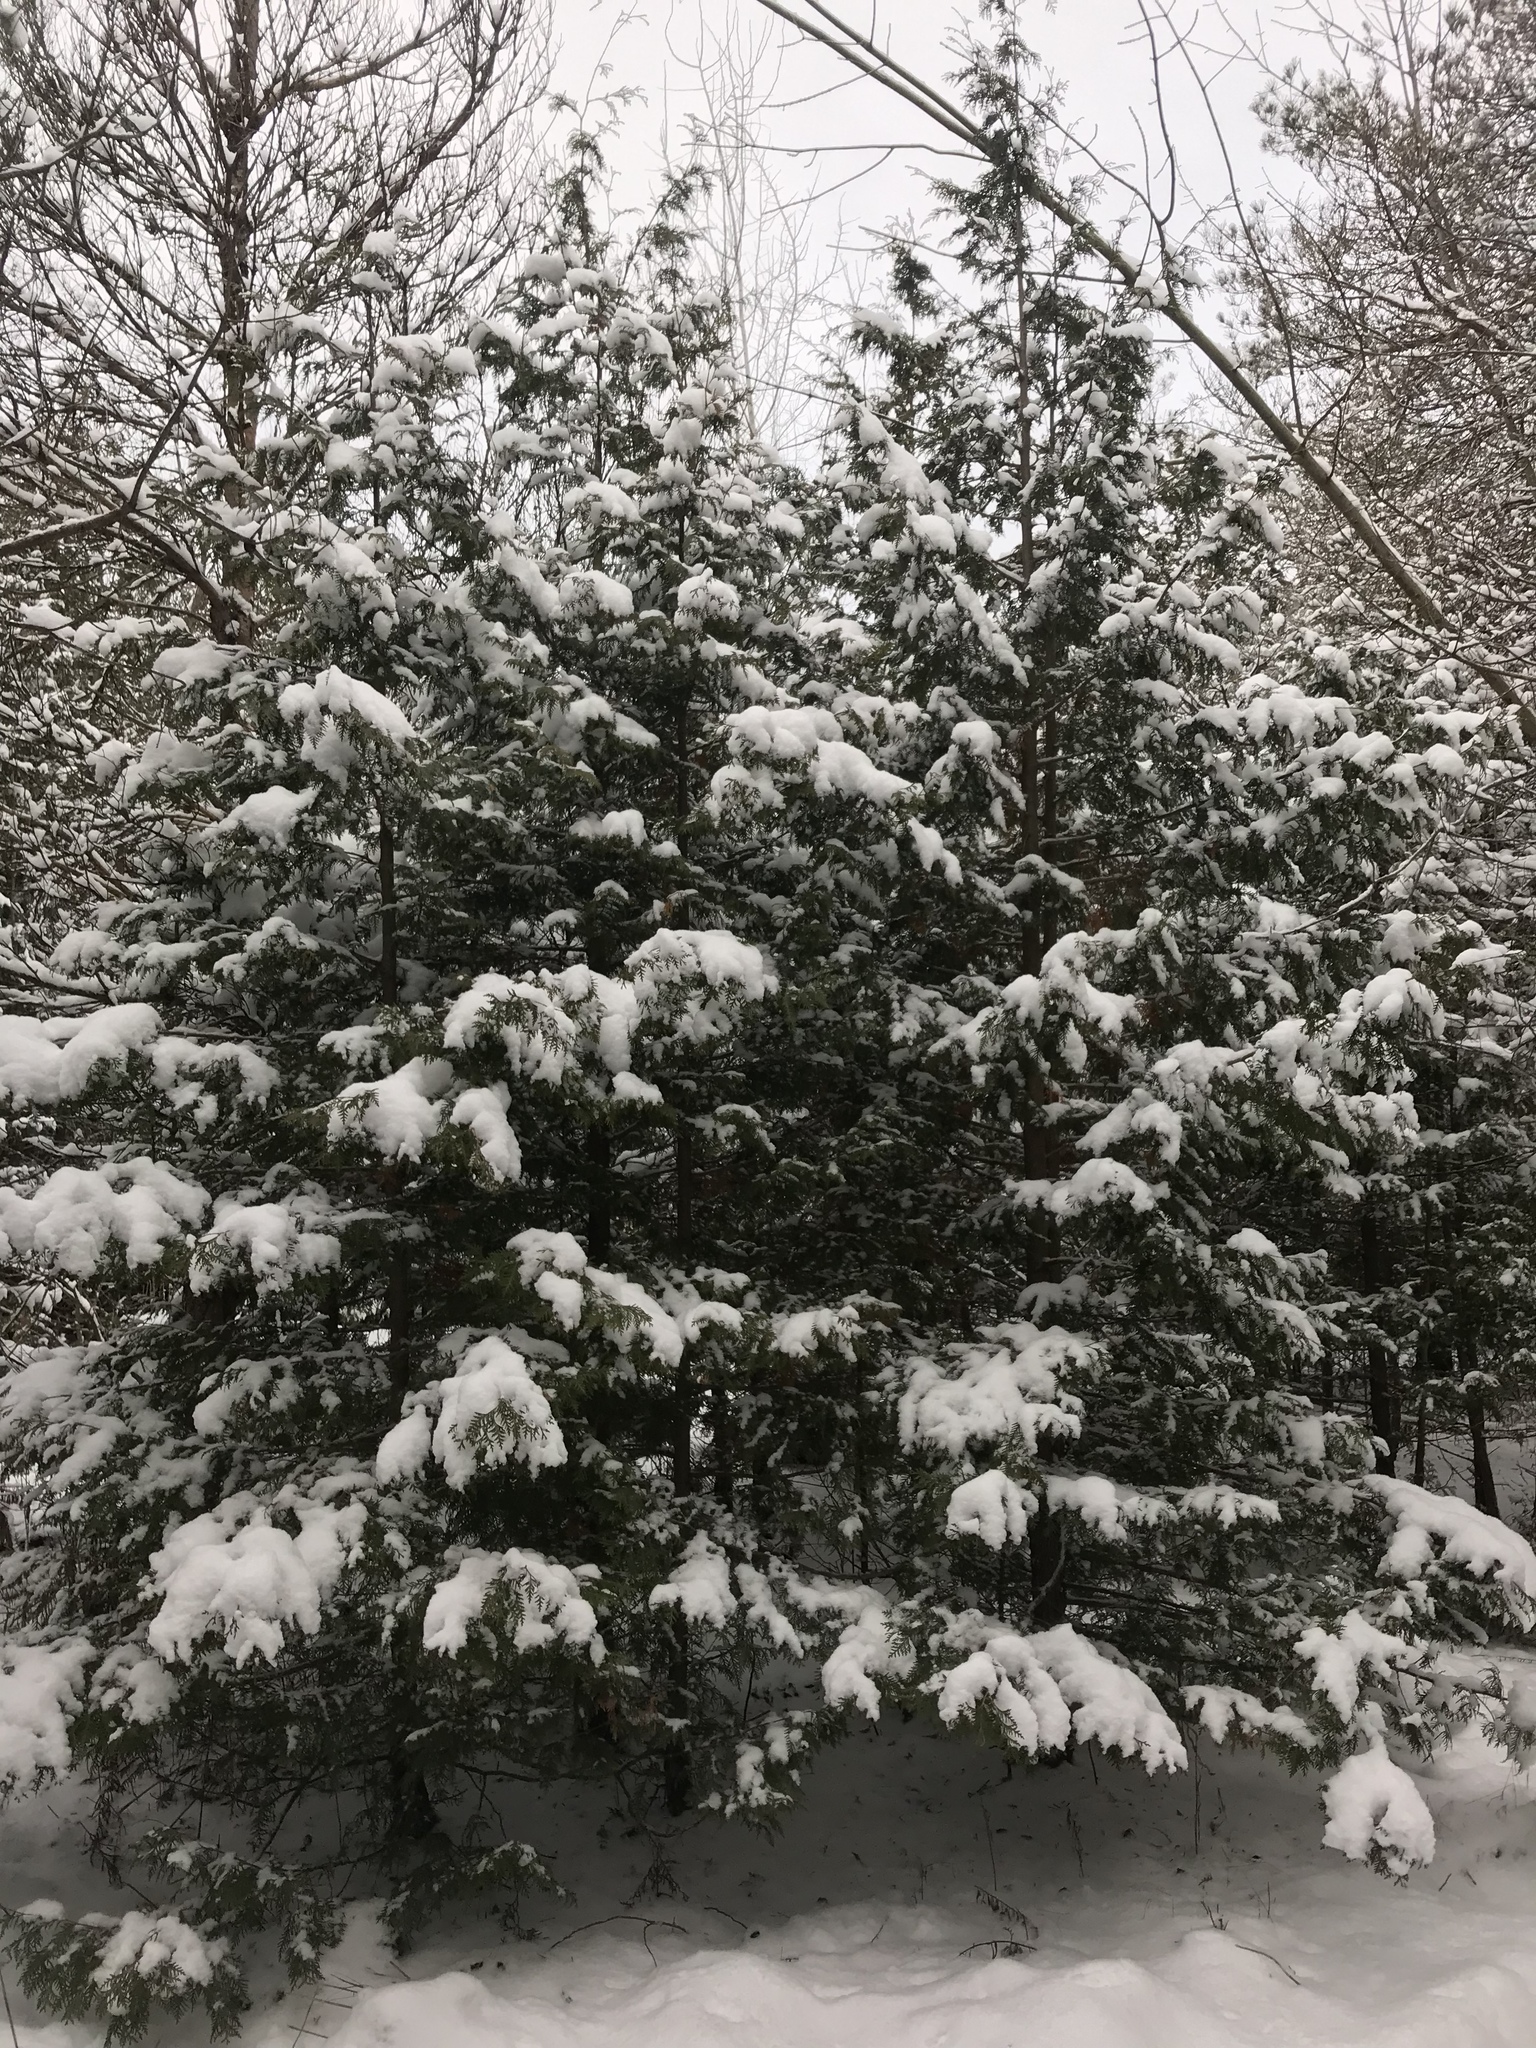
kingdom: Plantae
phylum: Tracheophyta
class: Pinopsida
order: Pinales
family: Cupressaceae
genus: Thuja
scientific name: Thuja occidentalis
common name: Northern white-cedar
